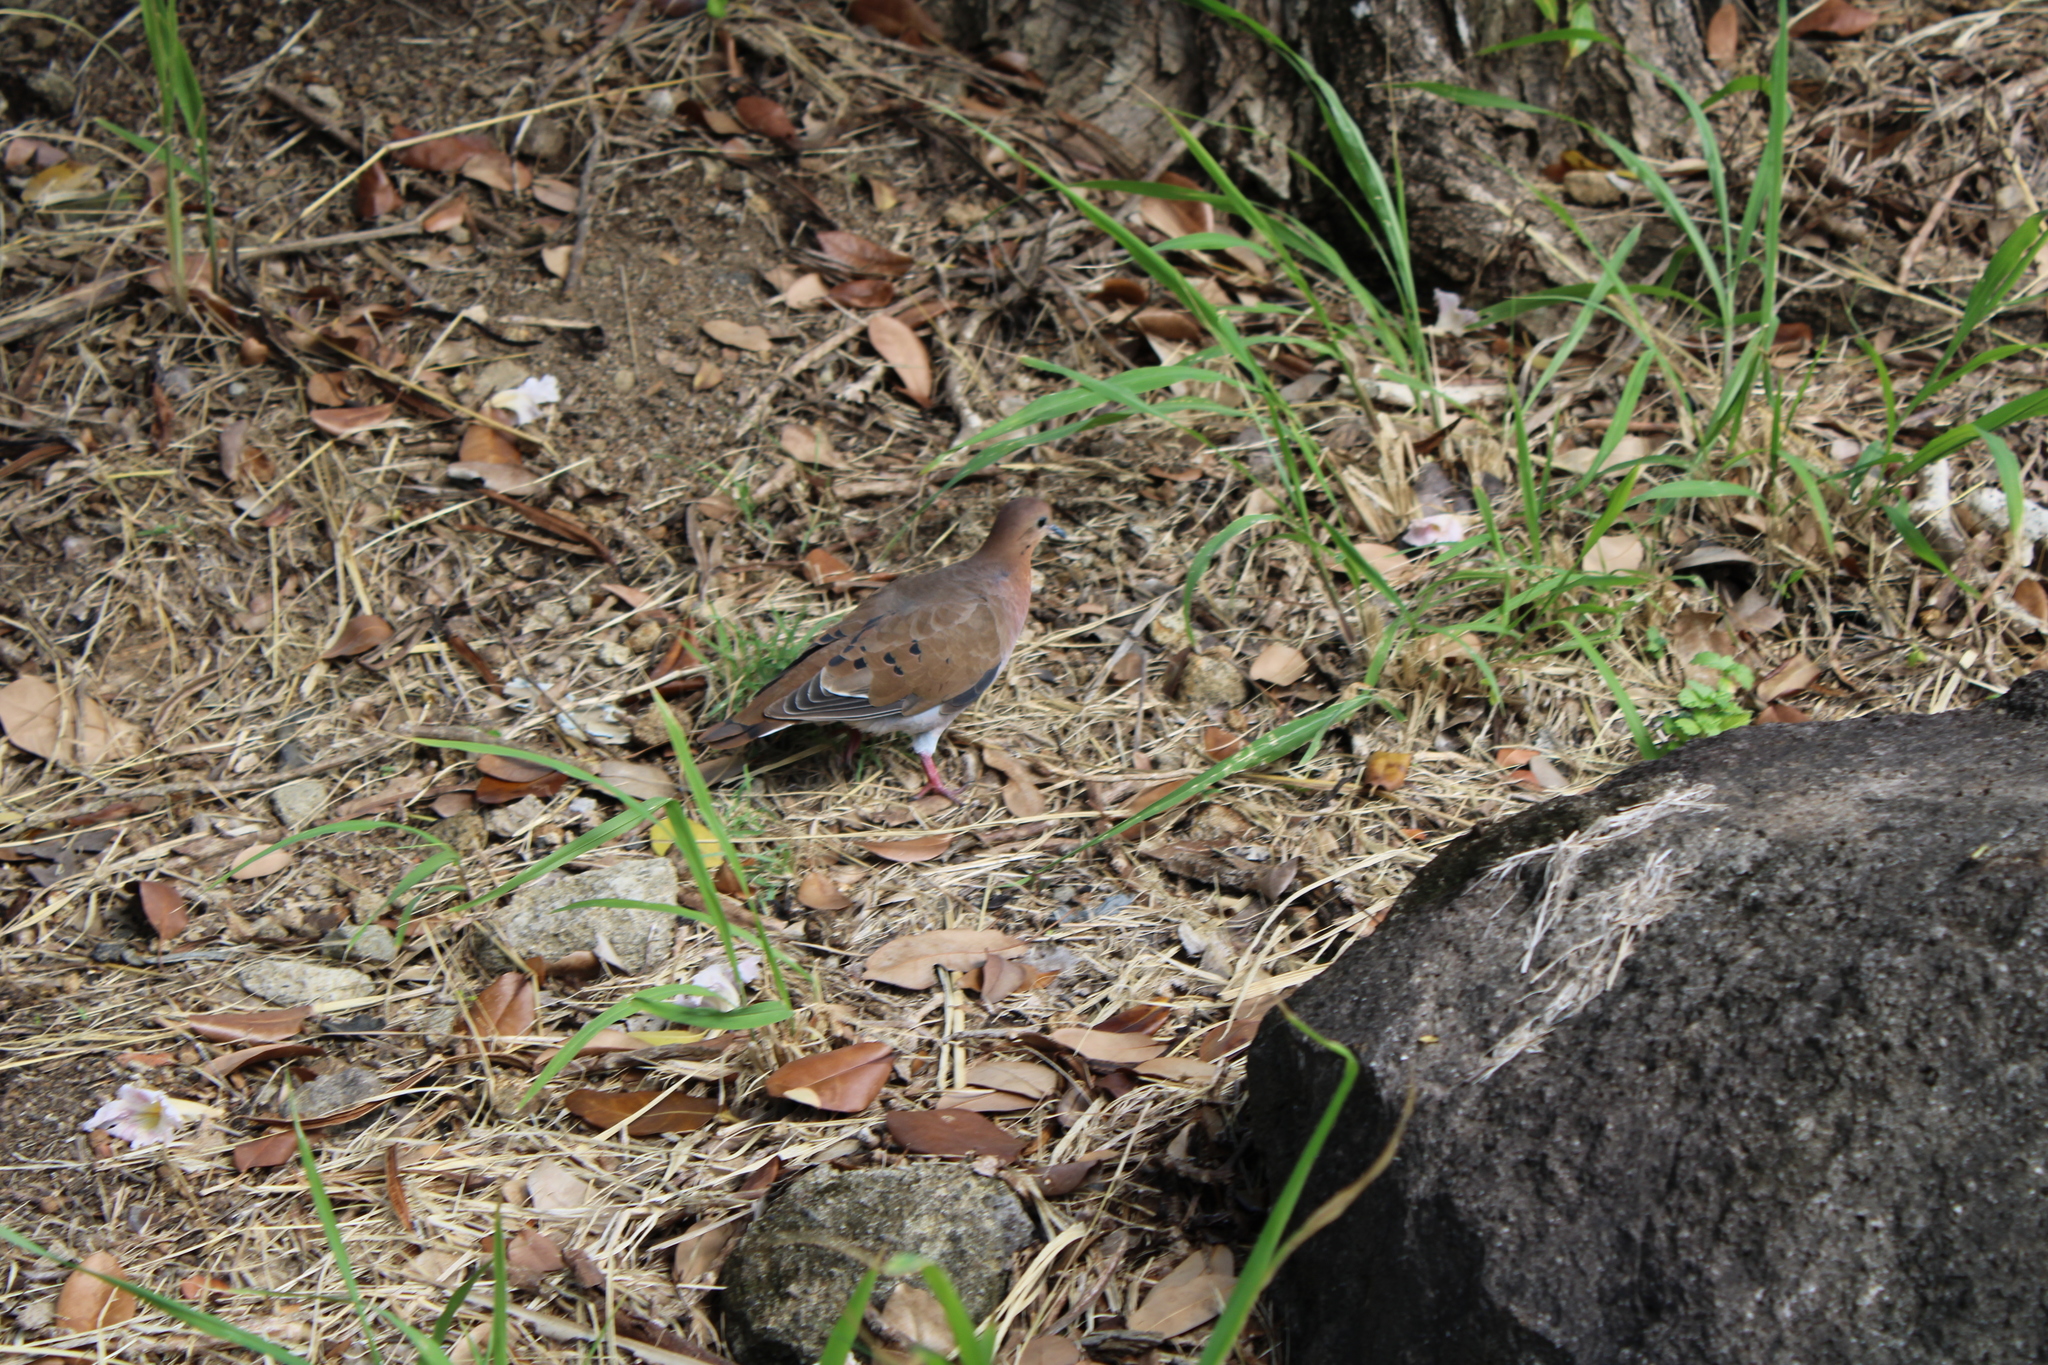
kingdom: Animalia
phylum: Chordata
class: Aves
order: Columbiformes
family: Columbidae
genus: Zenaida
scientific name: Zenaida aurita
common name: Zenaida dove
